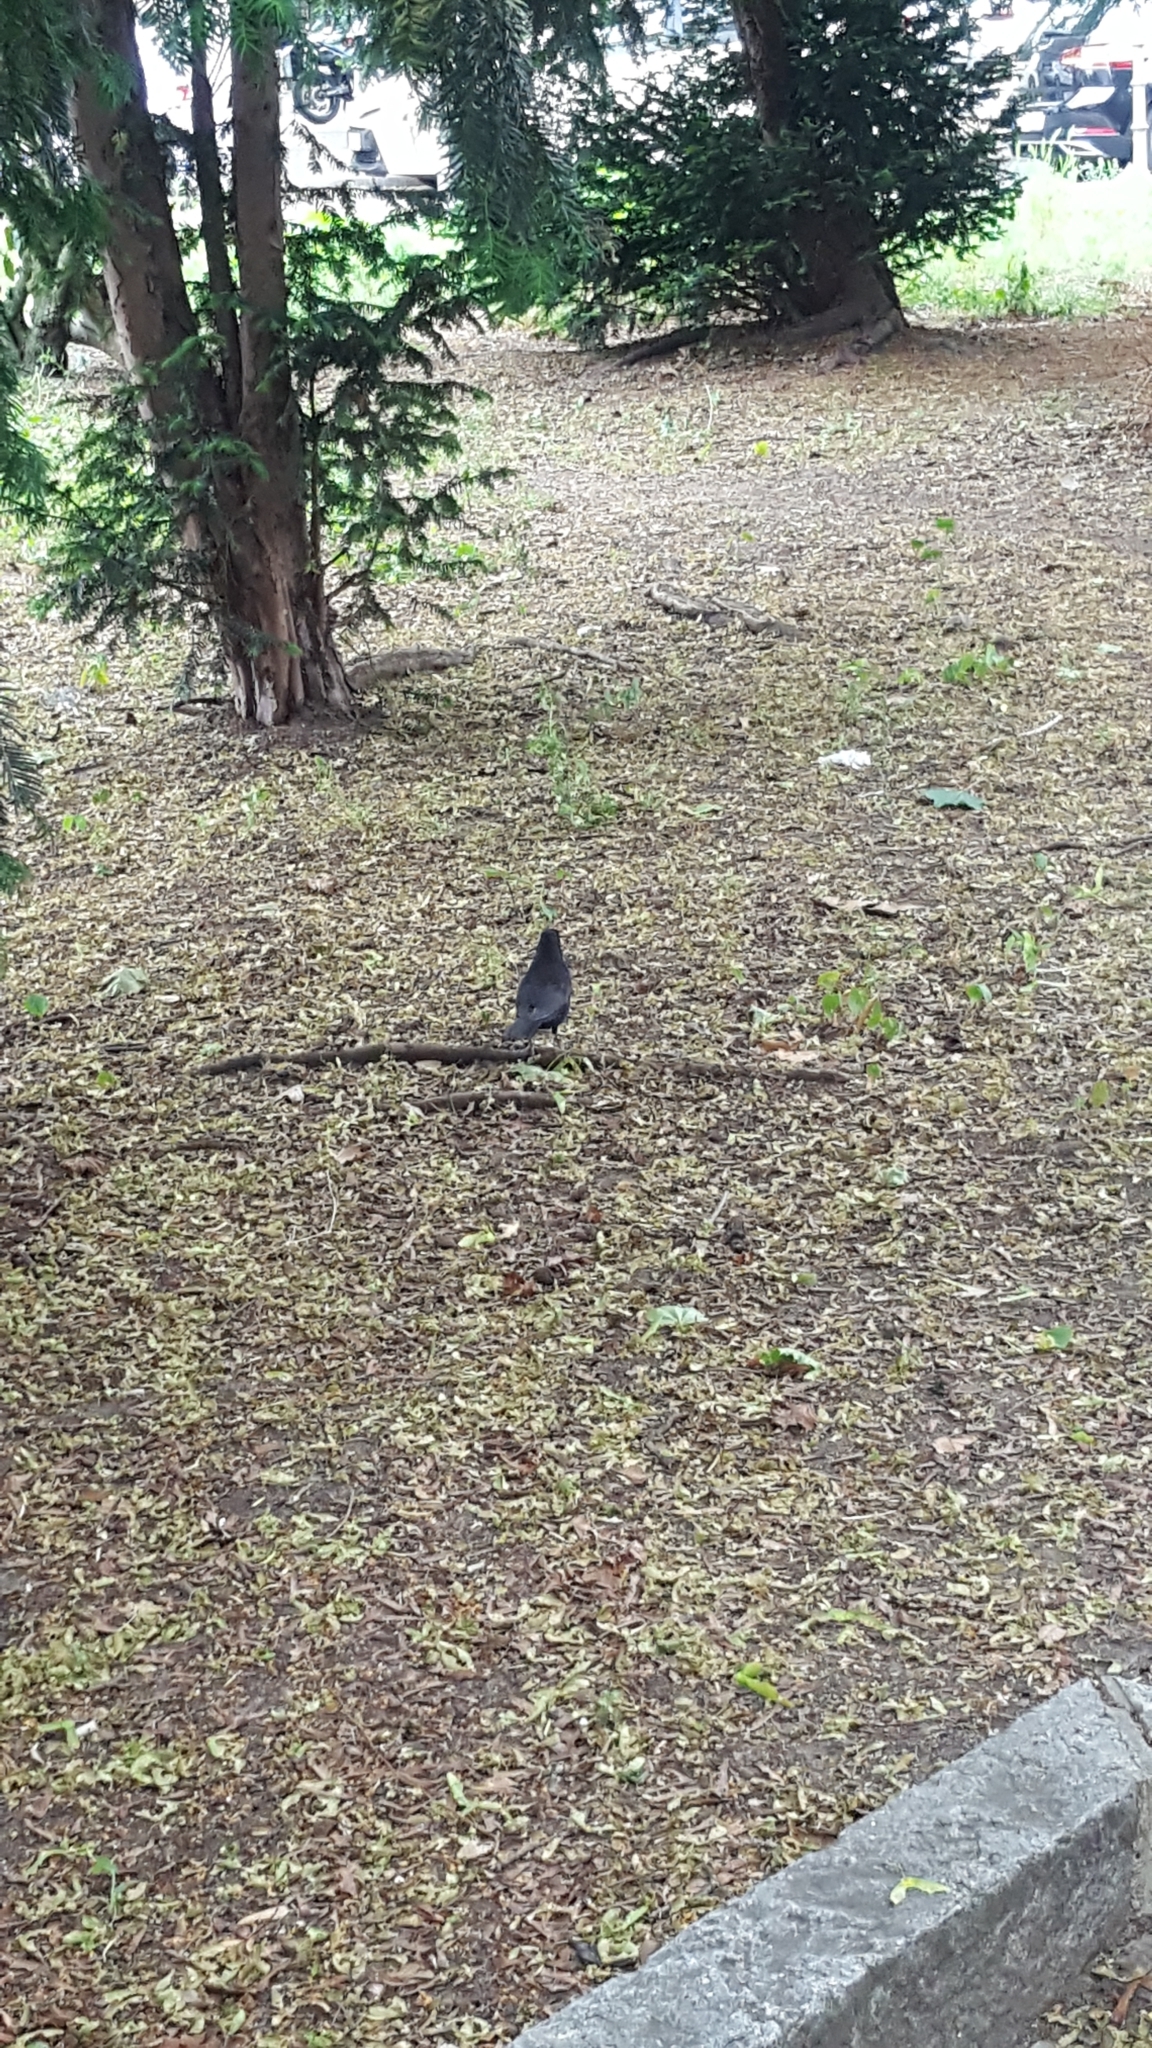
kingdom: Animalia
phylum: Chordata
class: Aves
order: Passeriformes
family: Turdidae
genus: Turdus
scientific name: Turdus merula
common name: Common blackbird
